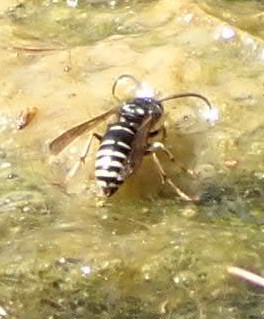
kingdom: Animalia
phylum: Arthropoda
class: Insecta
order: Hymenoptera
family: Vespidae
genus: Dolichovespula
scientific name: Dolichovespula adulterina
